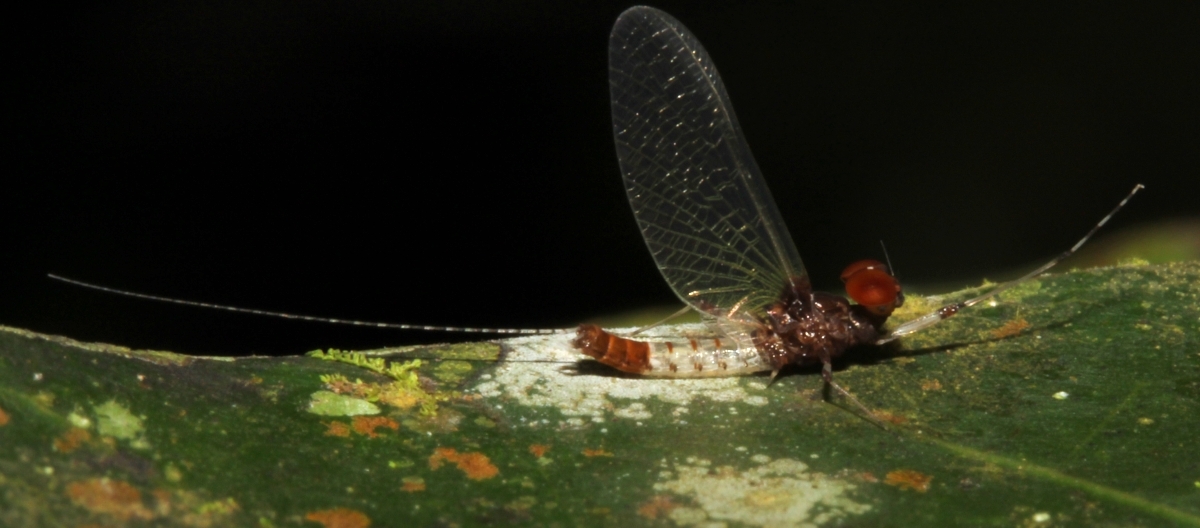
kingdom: Animalia
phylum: Arthropoda
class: Insecta
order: Ephemeroptera
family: Leptophlebiidae
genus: Thraulodes
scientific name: Thraulodes
